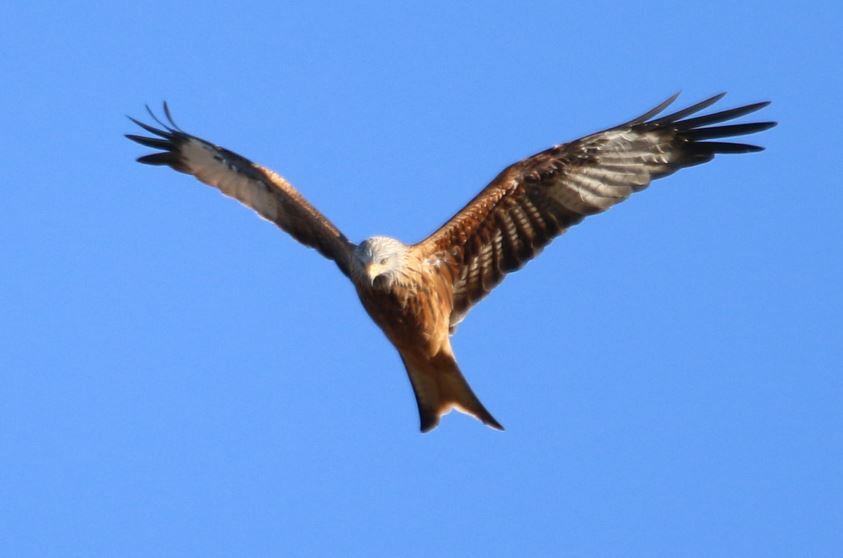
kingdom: Animalia
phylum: Chordata
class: Aves
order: Accipitriformes
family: Accipitridae
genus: Milvus
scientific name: Milvus milvus
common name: Red kite
